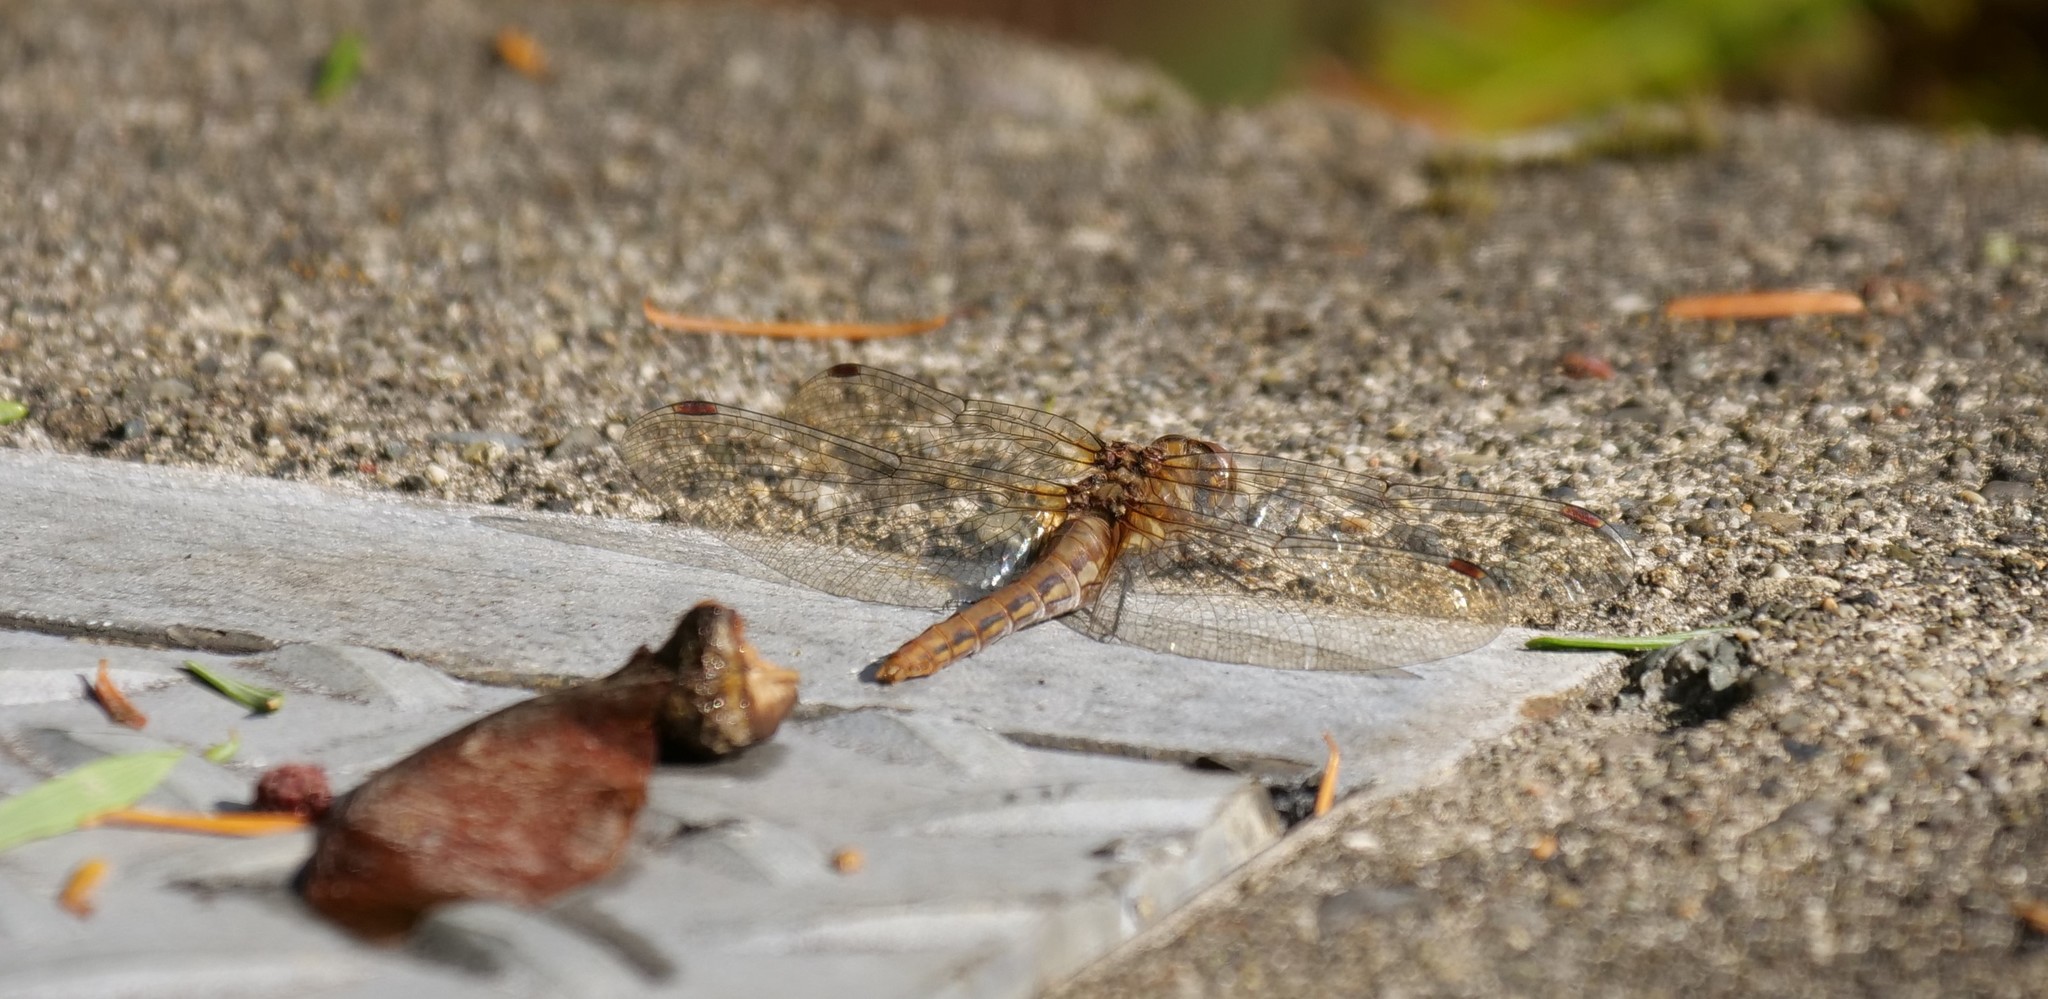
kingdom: Animalia
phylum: Arthropoda
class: Insecta
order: Odonata
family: Libellulidae
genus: Sympetrum
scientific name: Sympetrum pallipes
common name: Striped meadowhawk
